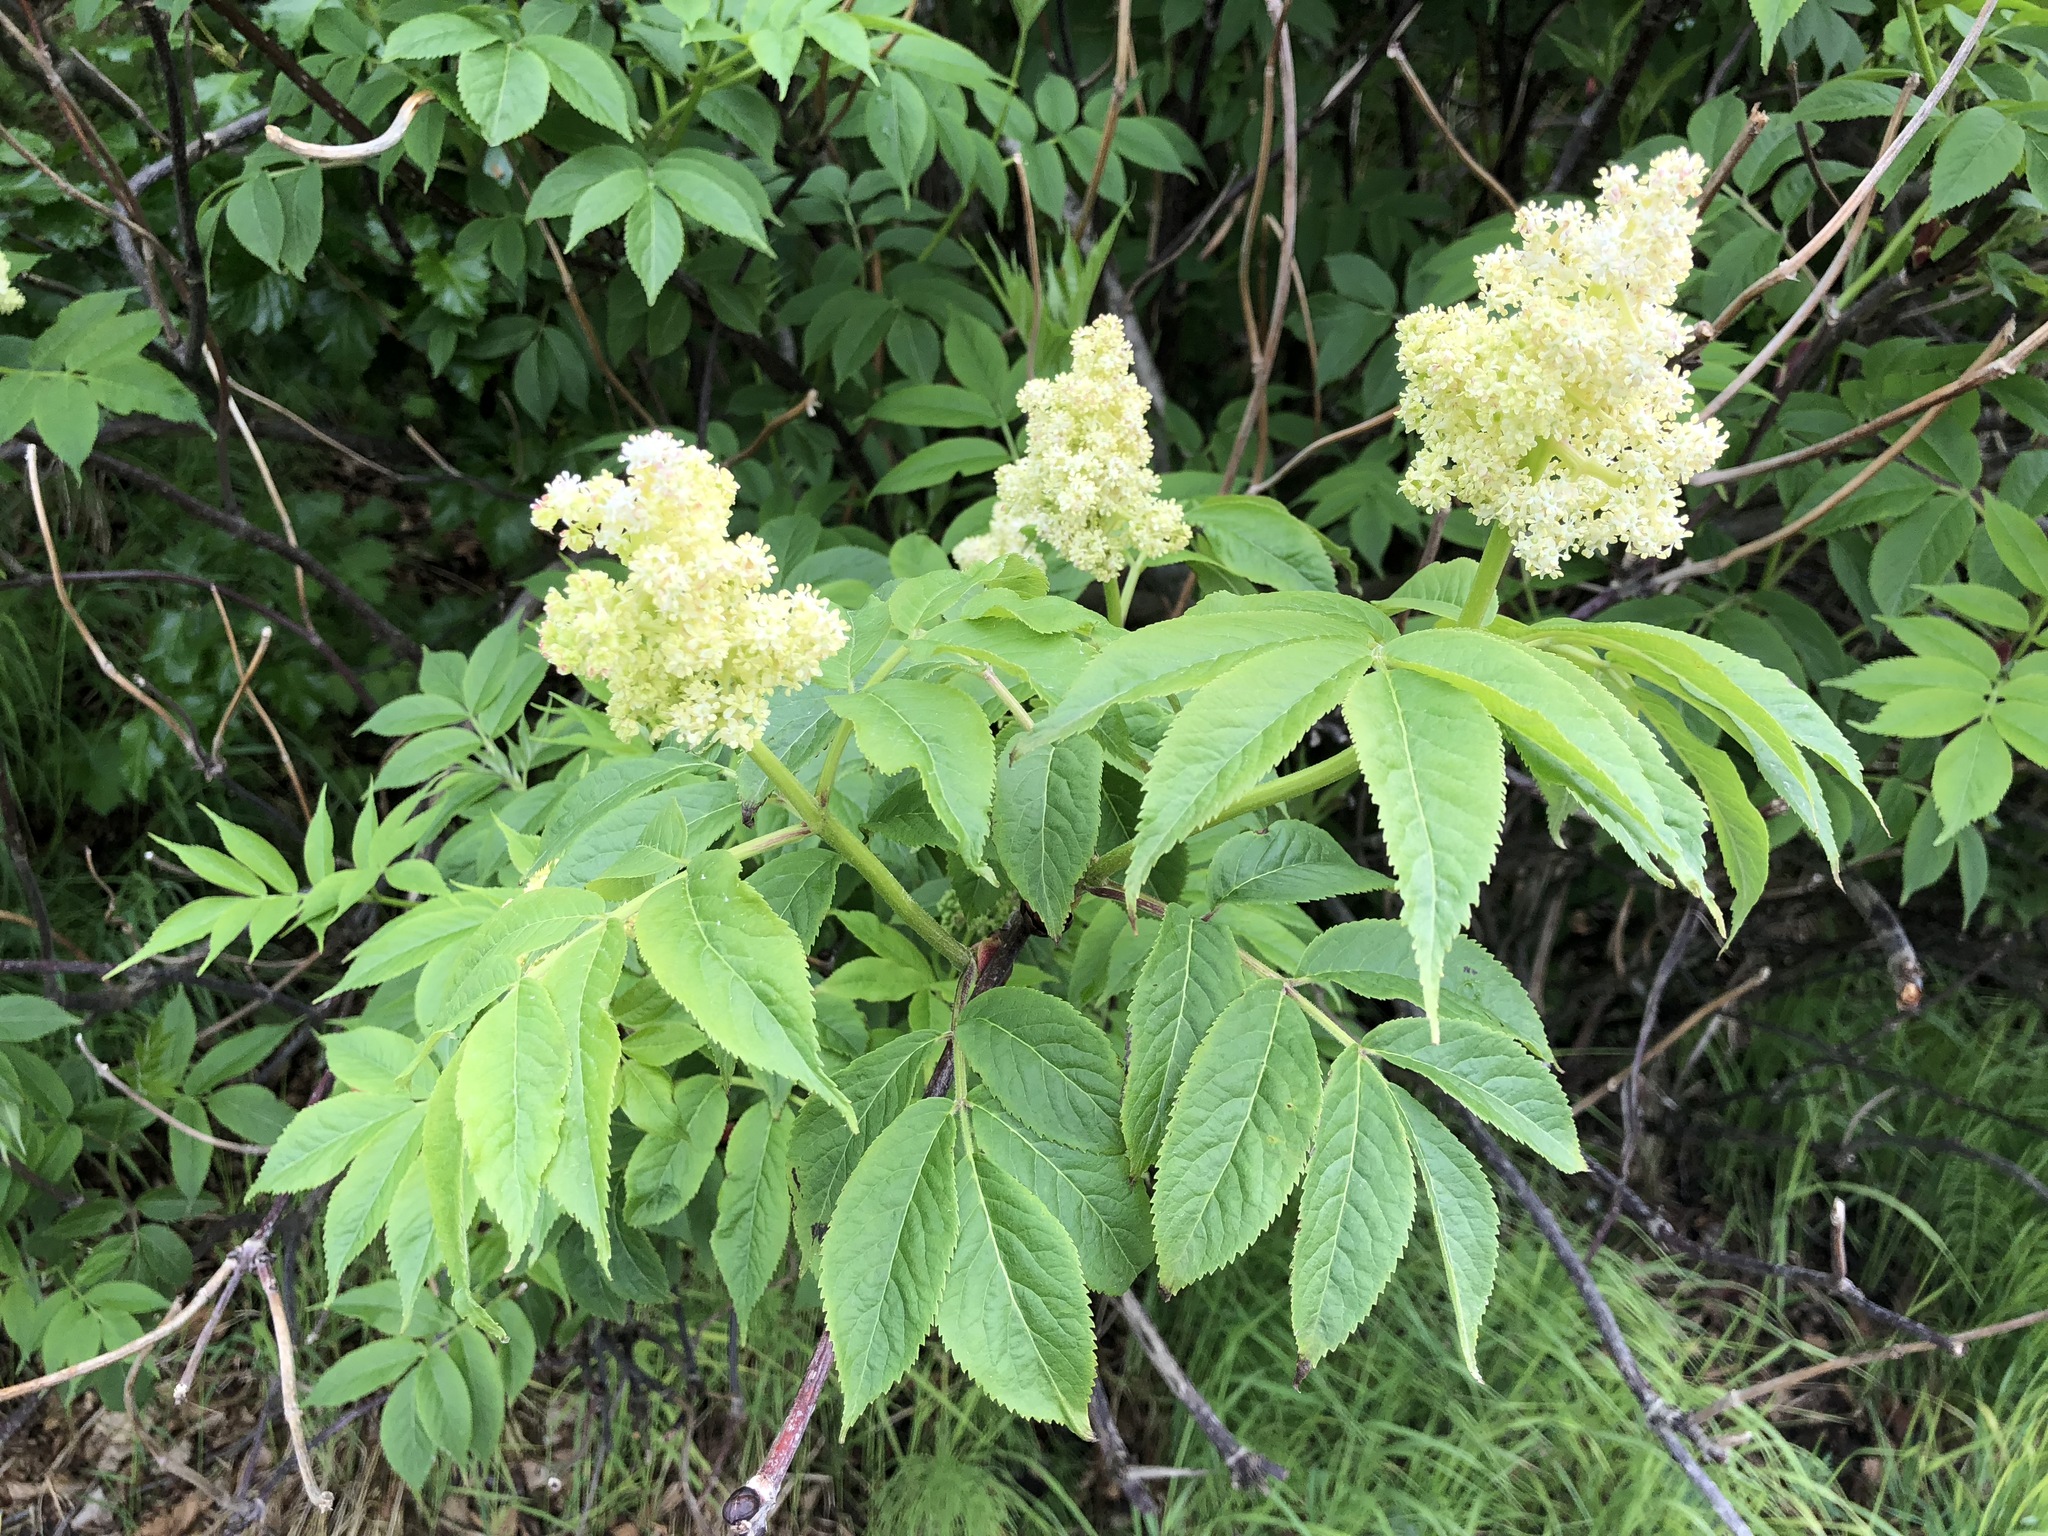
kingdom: Plantae
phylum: Tracheophyta
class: Magnoliopsida
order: Dipsacales
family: Viburnaceae
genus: Sambucus
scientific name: Sambucus racemosa
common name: Red-berried elder
